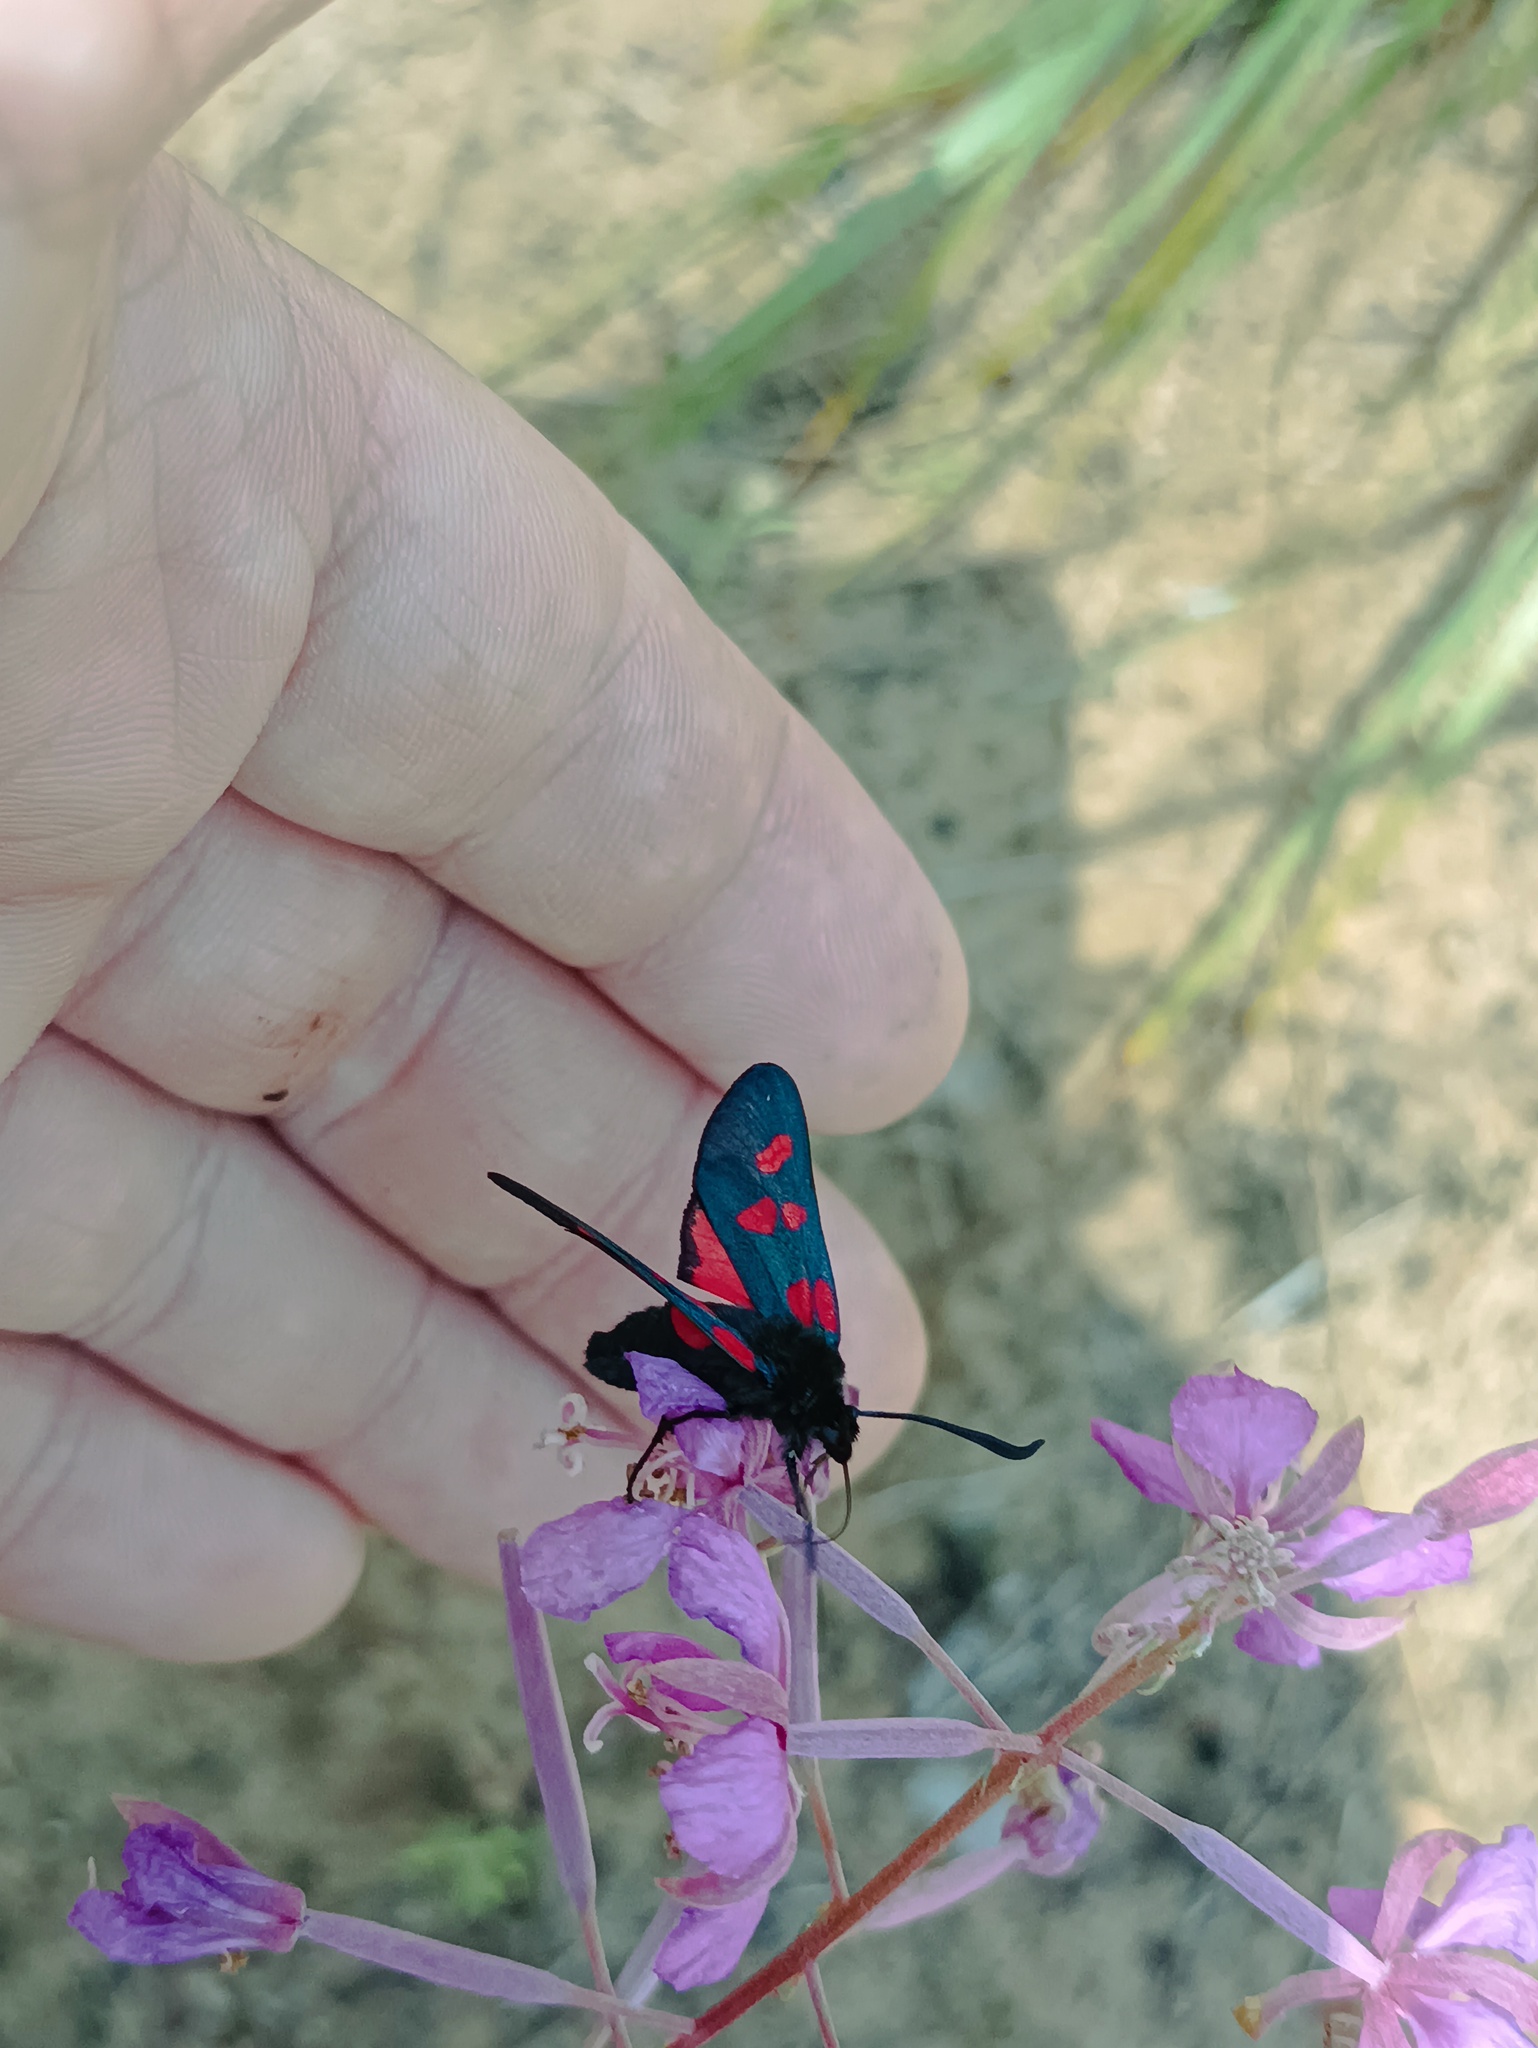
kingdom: Animalia
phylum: Arthropoda
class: Insecta
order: Lepidoptera
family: Zygaenidae
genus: Zygaena
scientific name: Zygaena lonicerae
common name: Narrow-bordered five-spot burnet
